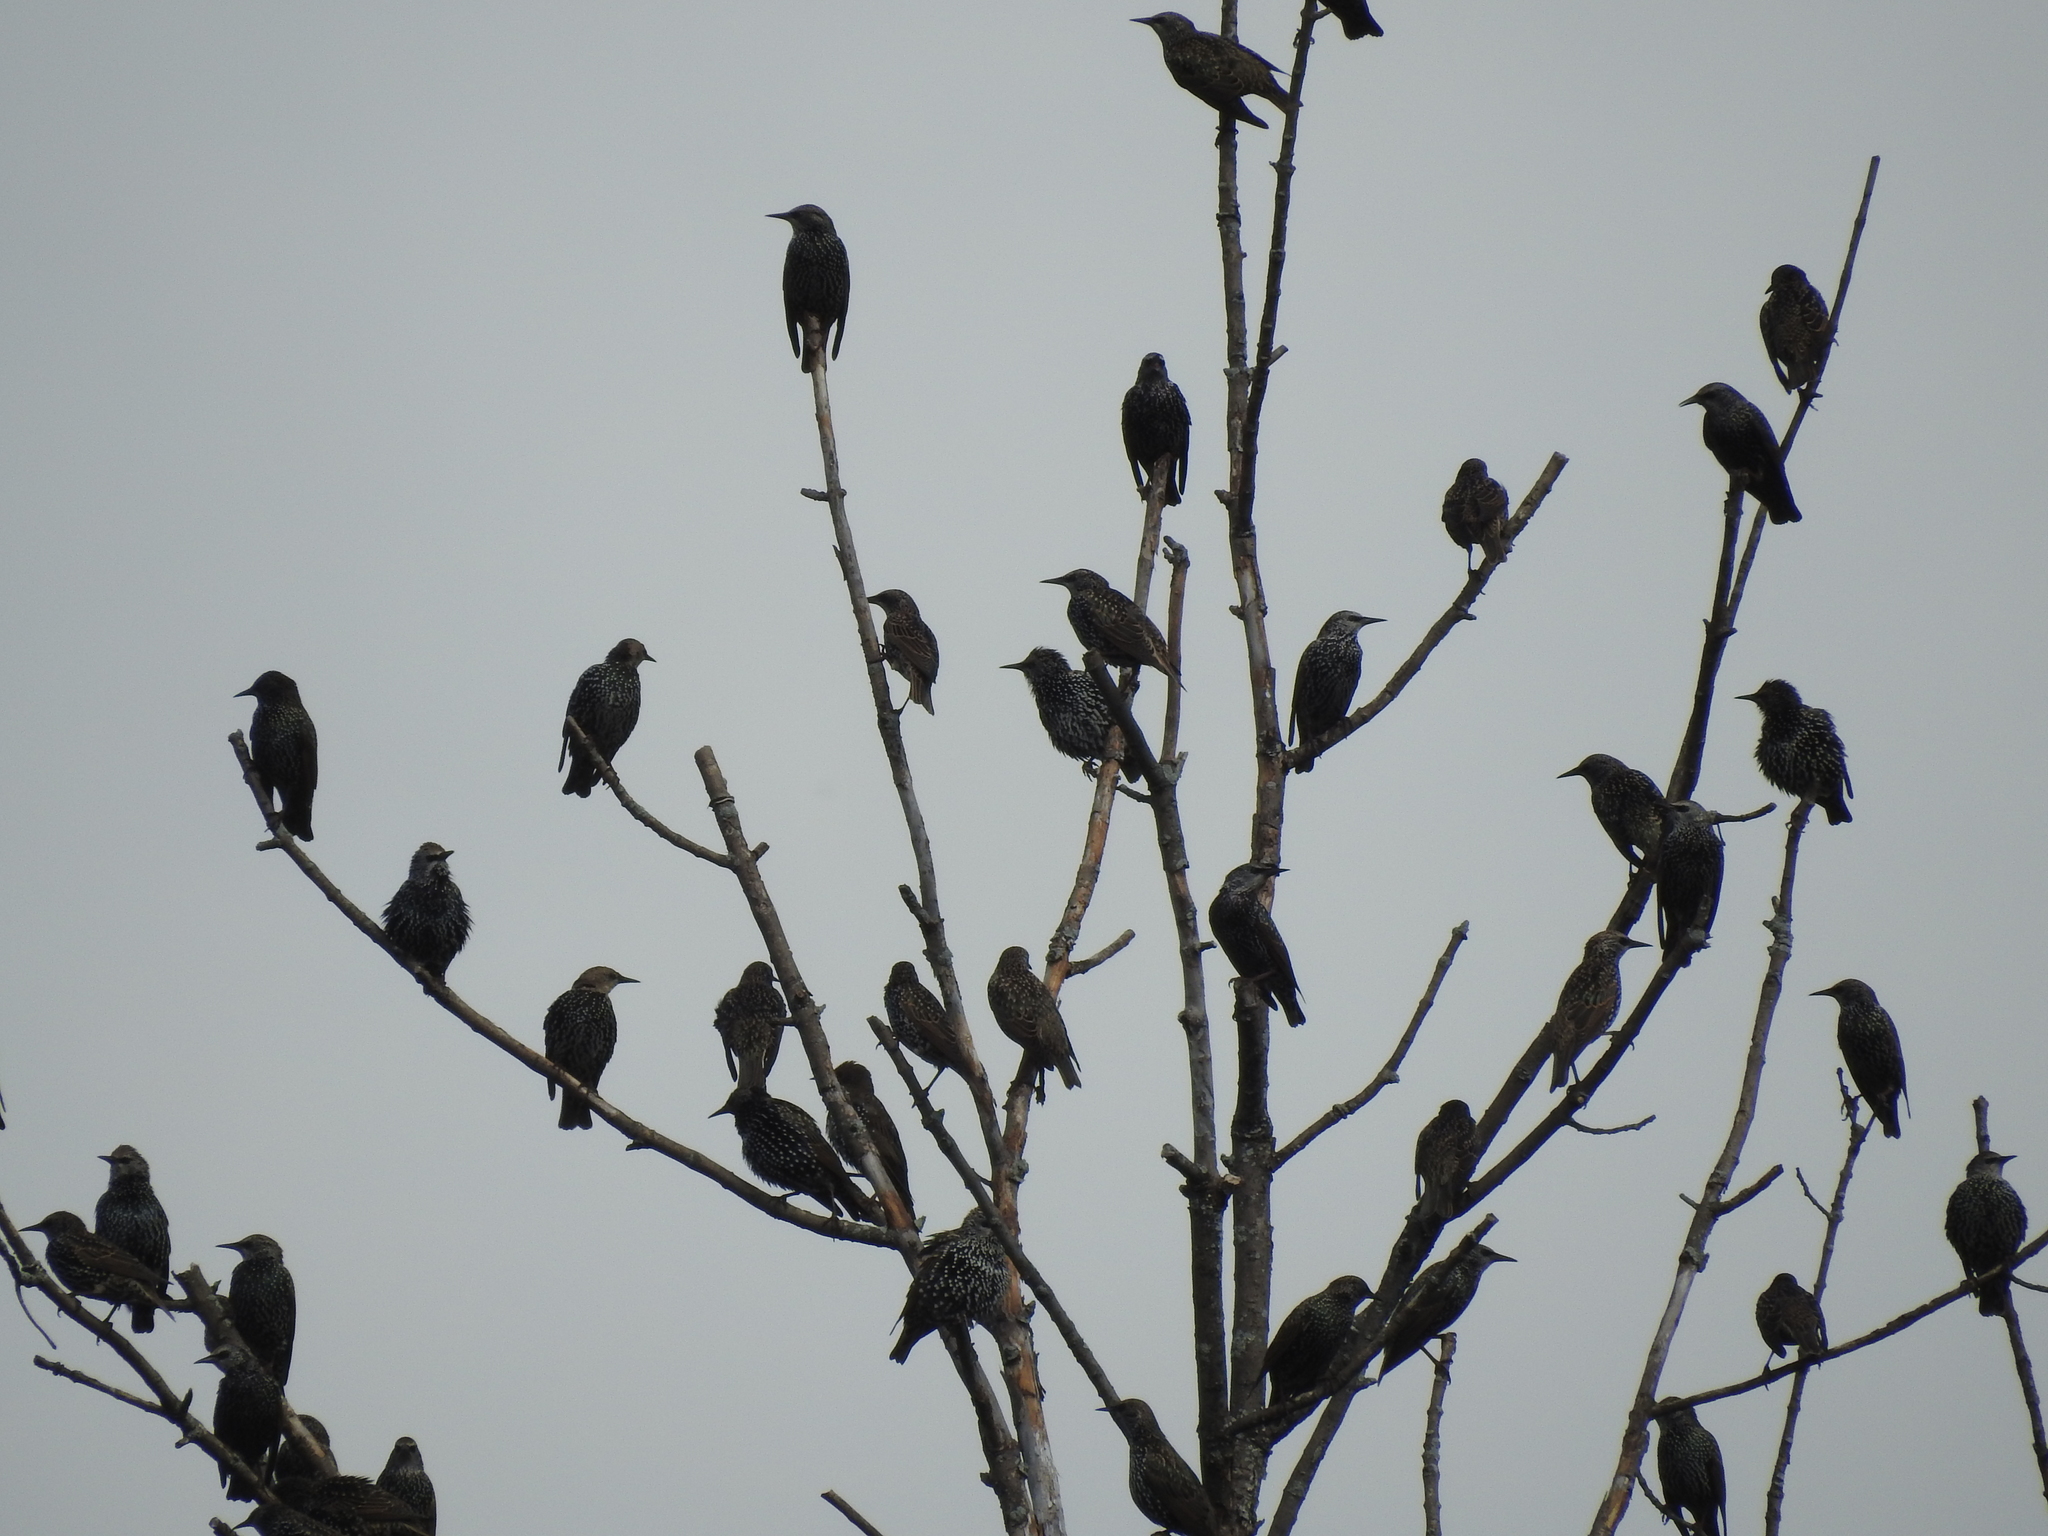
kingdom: Animalia
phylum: Chordata
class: Aves
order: Passeriformes
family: Sturnidae
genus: Sturnus
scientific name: Sturnus vulgaris
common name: Common starling
